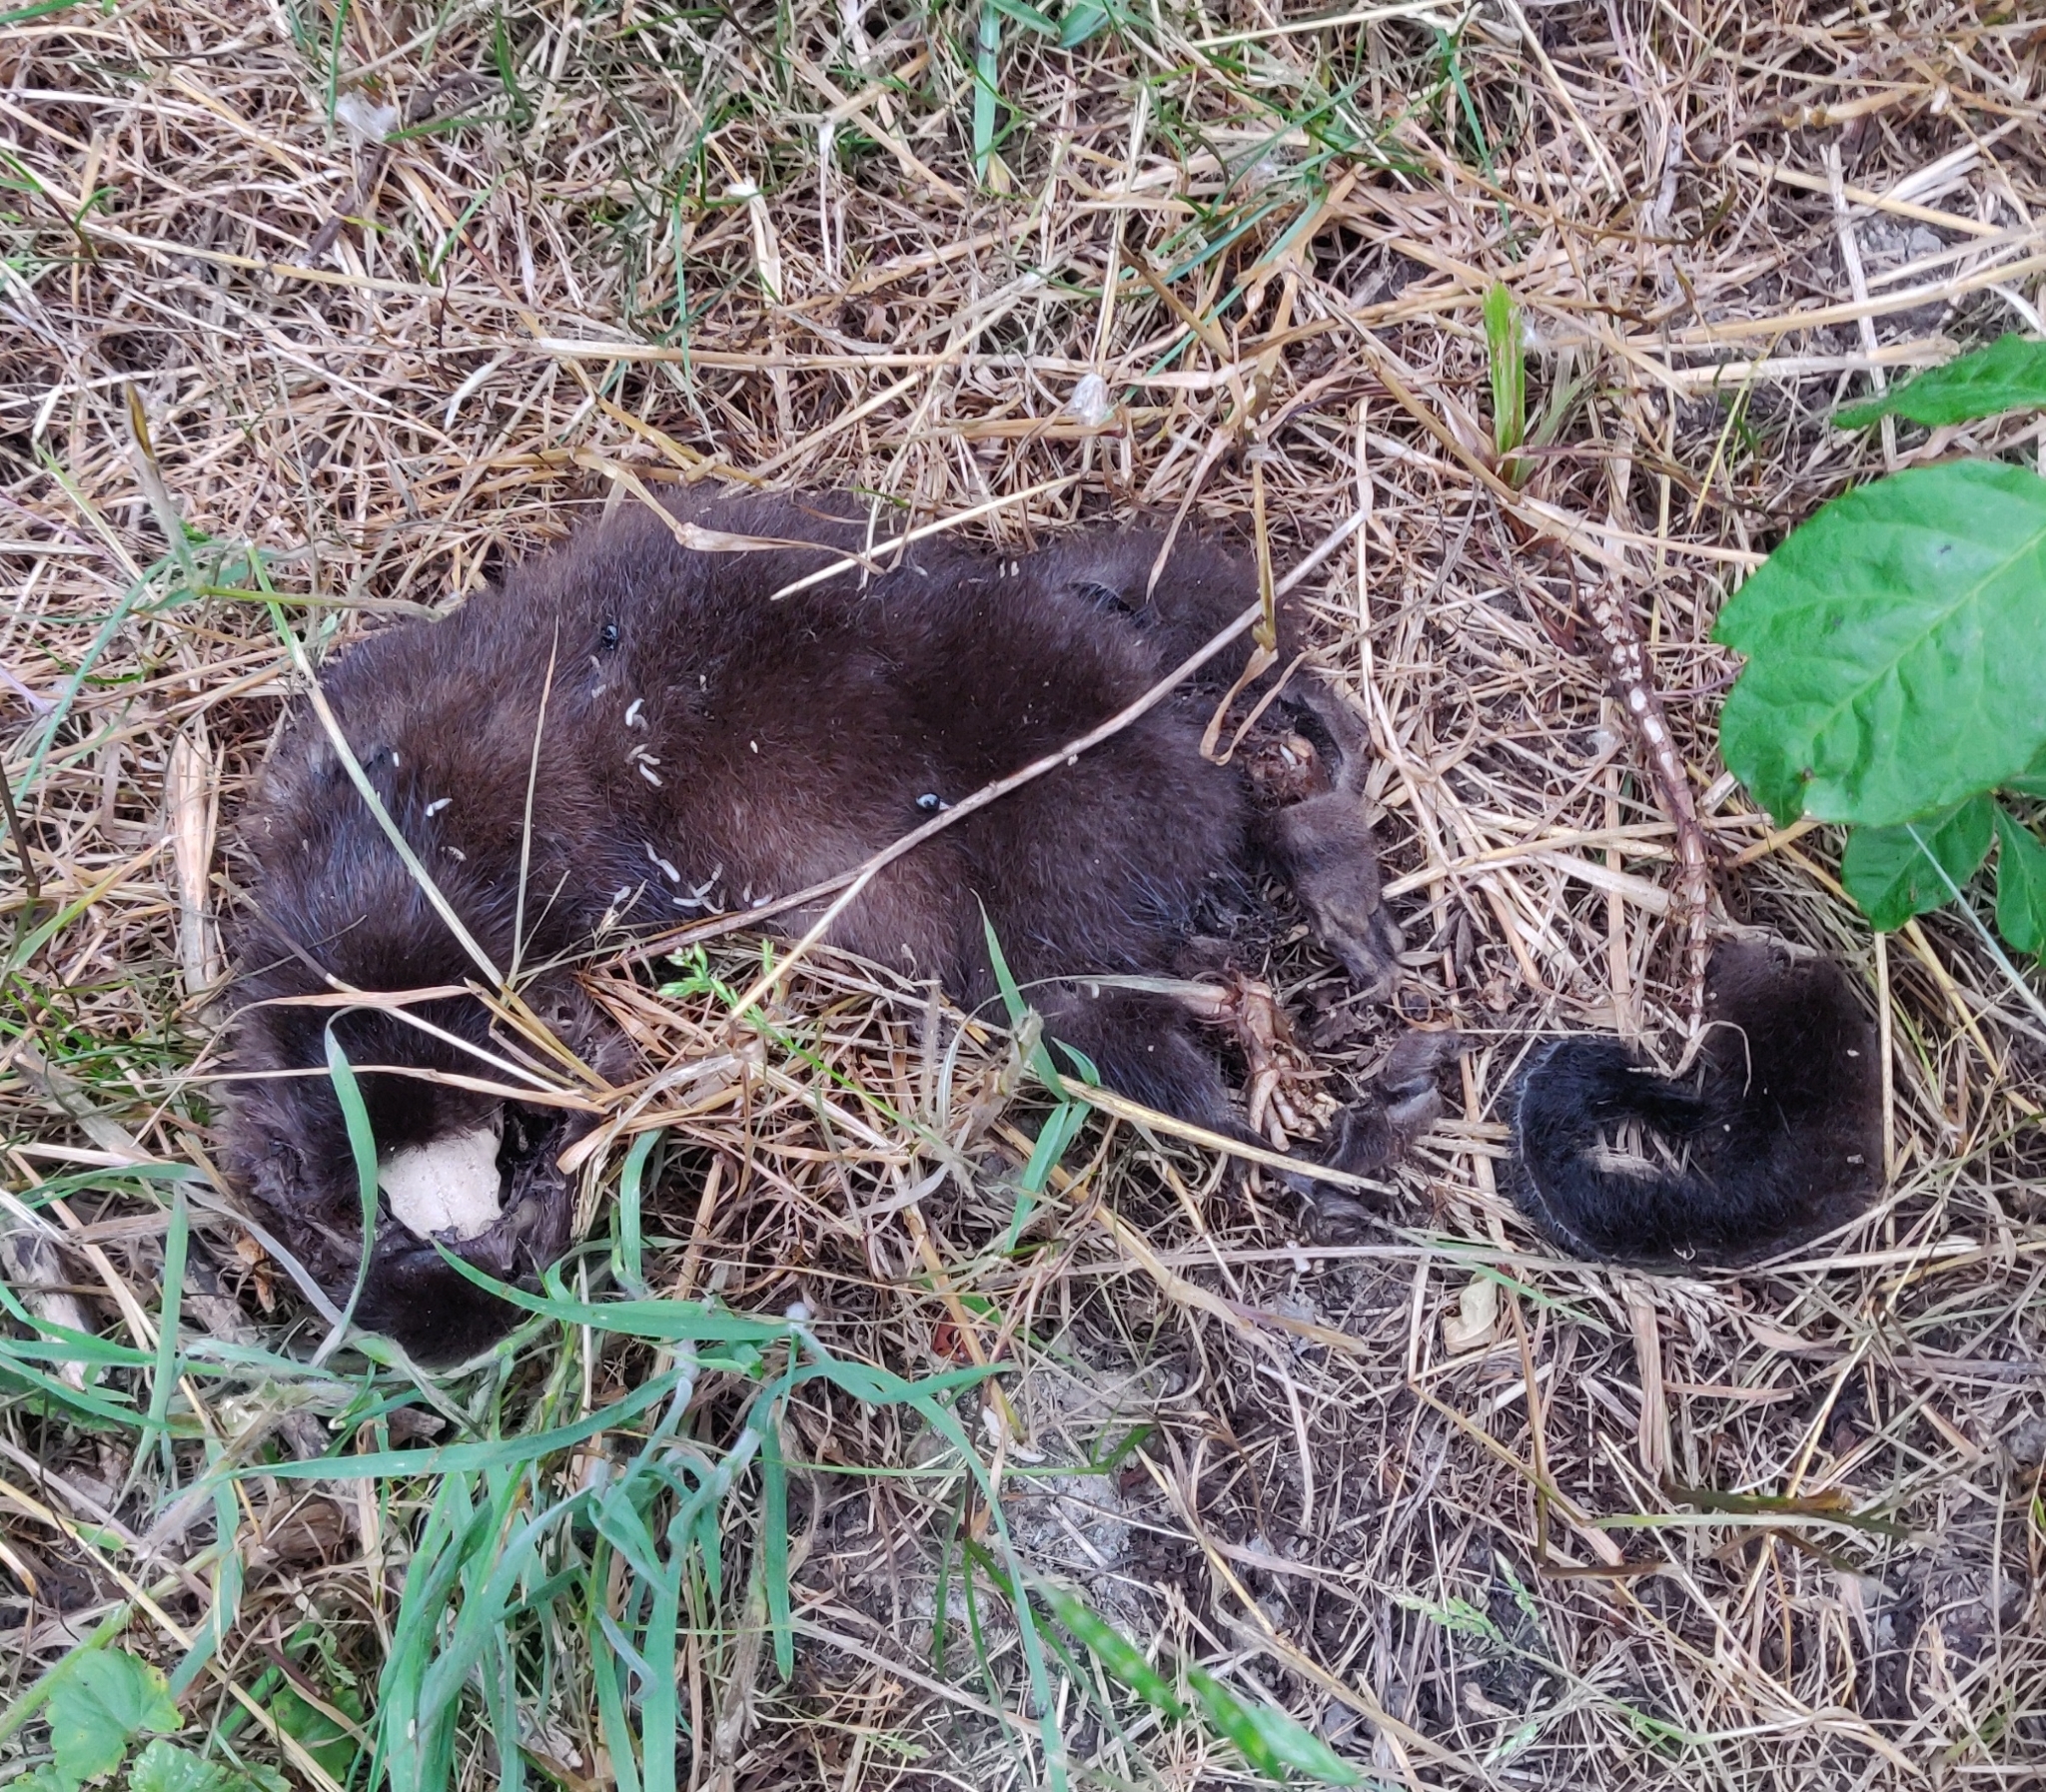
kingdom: Animalia
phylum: Chordata
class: Mammalia
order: Carnivora
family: Mustelidae
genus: Mustela
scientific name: Mustela
